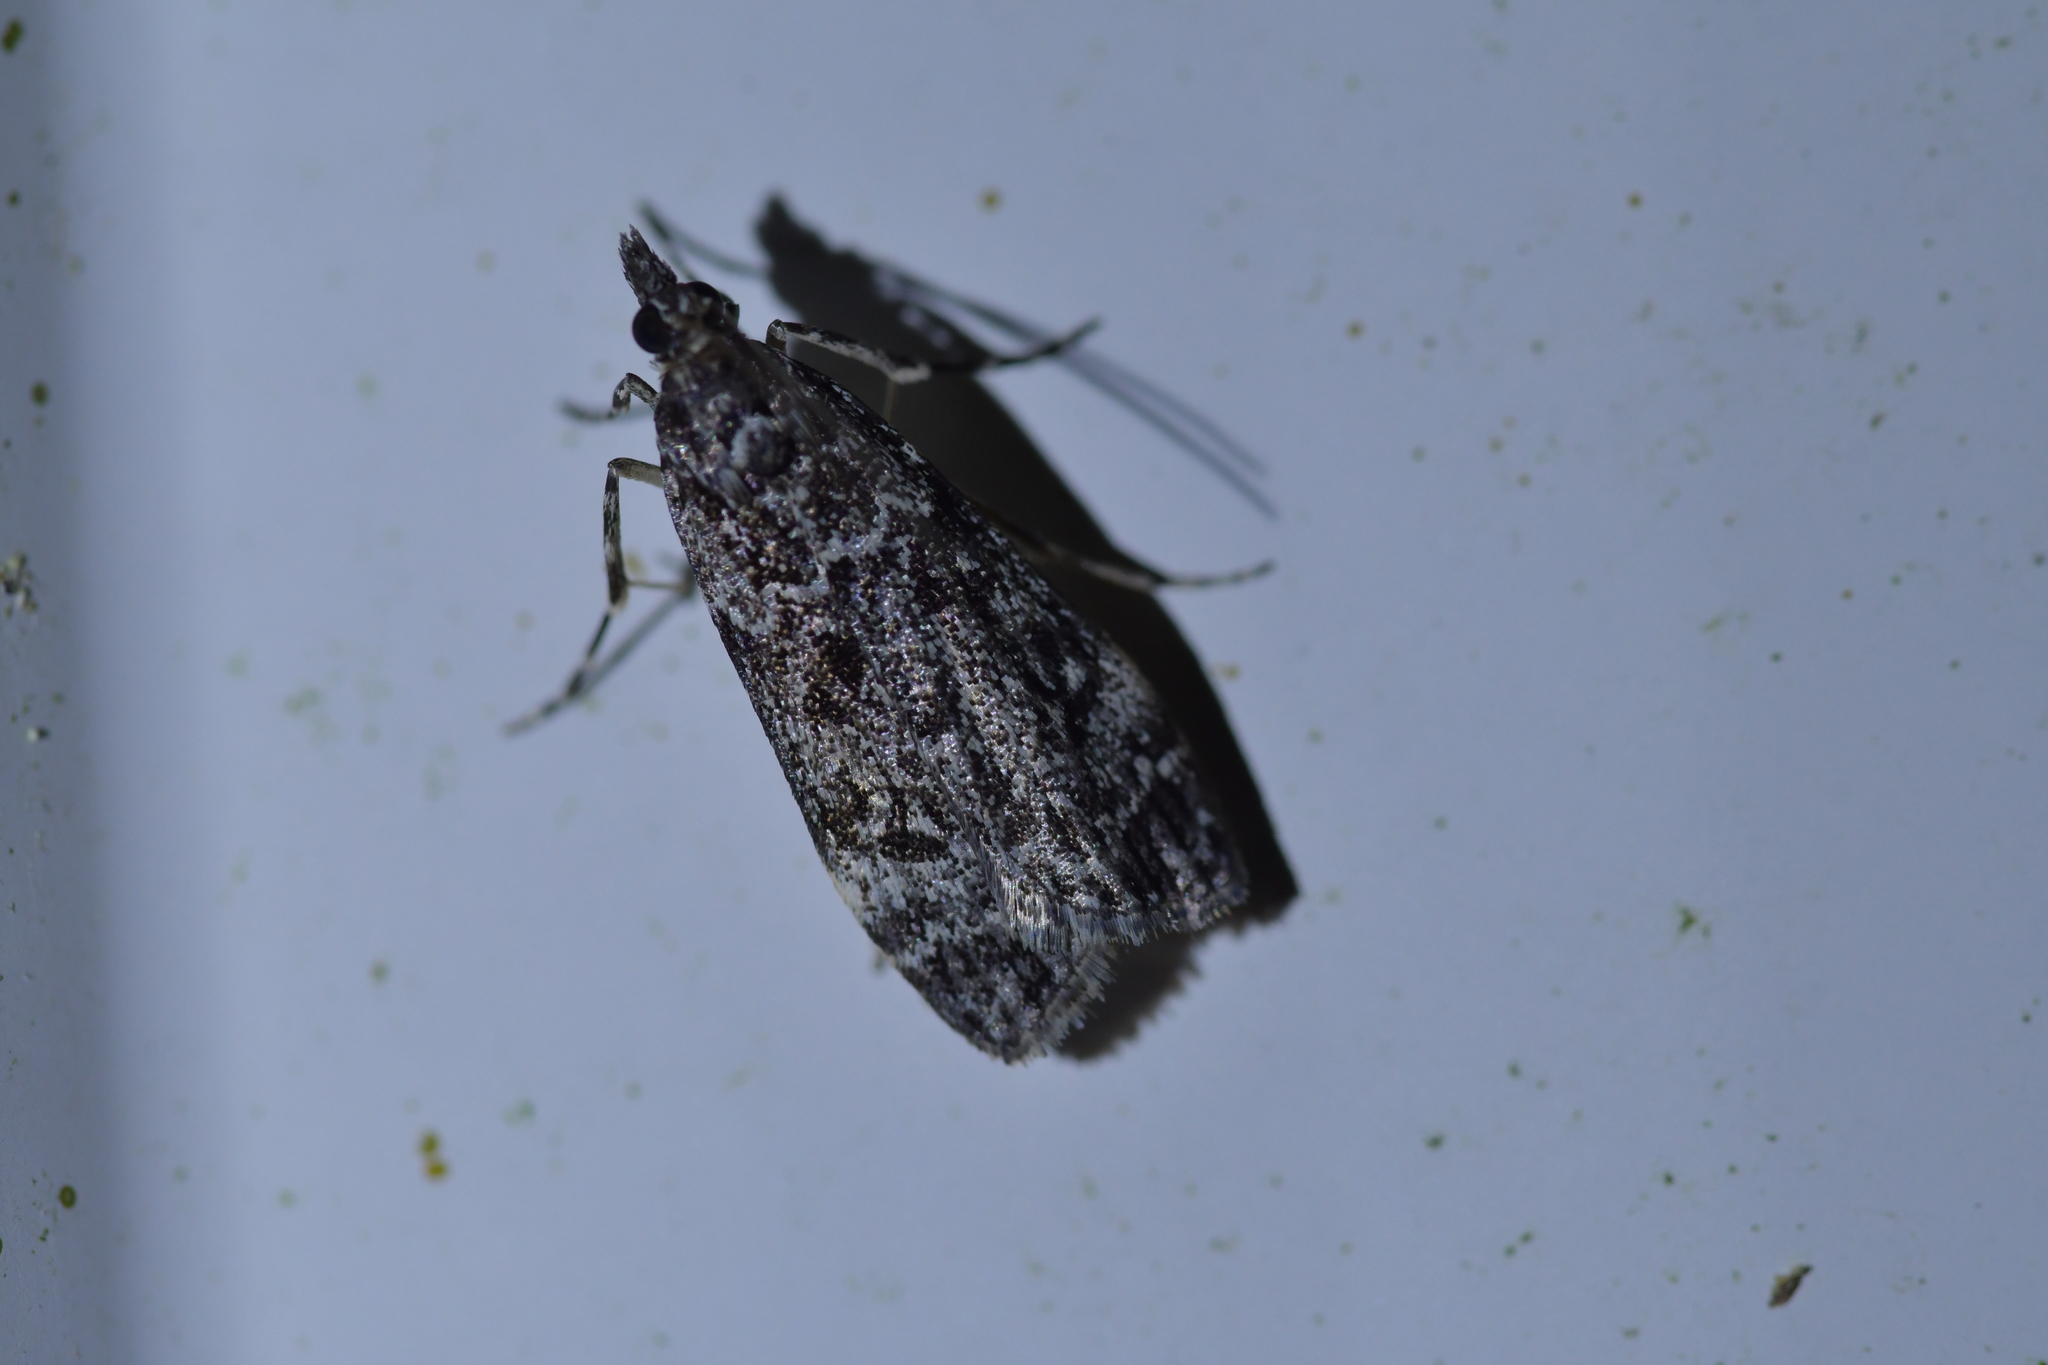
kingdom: Animalia
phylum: Arthropoda
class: Insecta
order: Lepidoptera
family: Crambidae
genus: Eudonia
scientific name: Eudonia philerga
